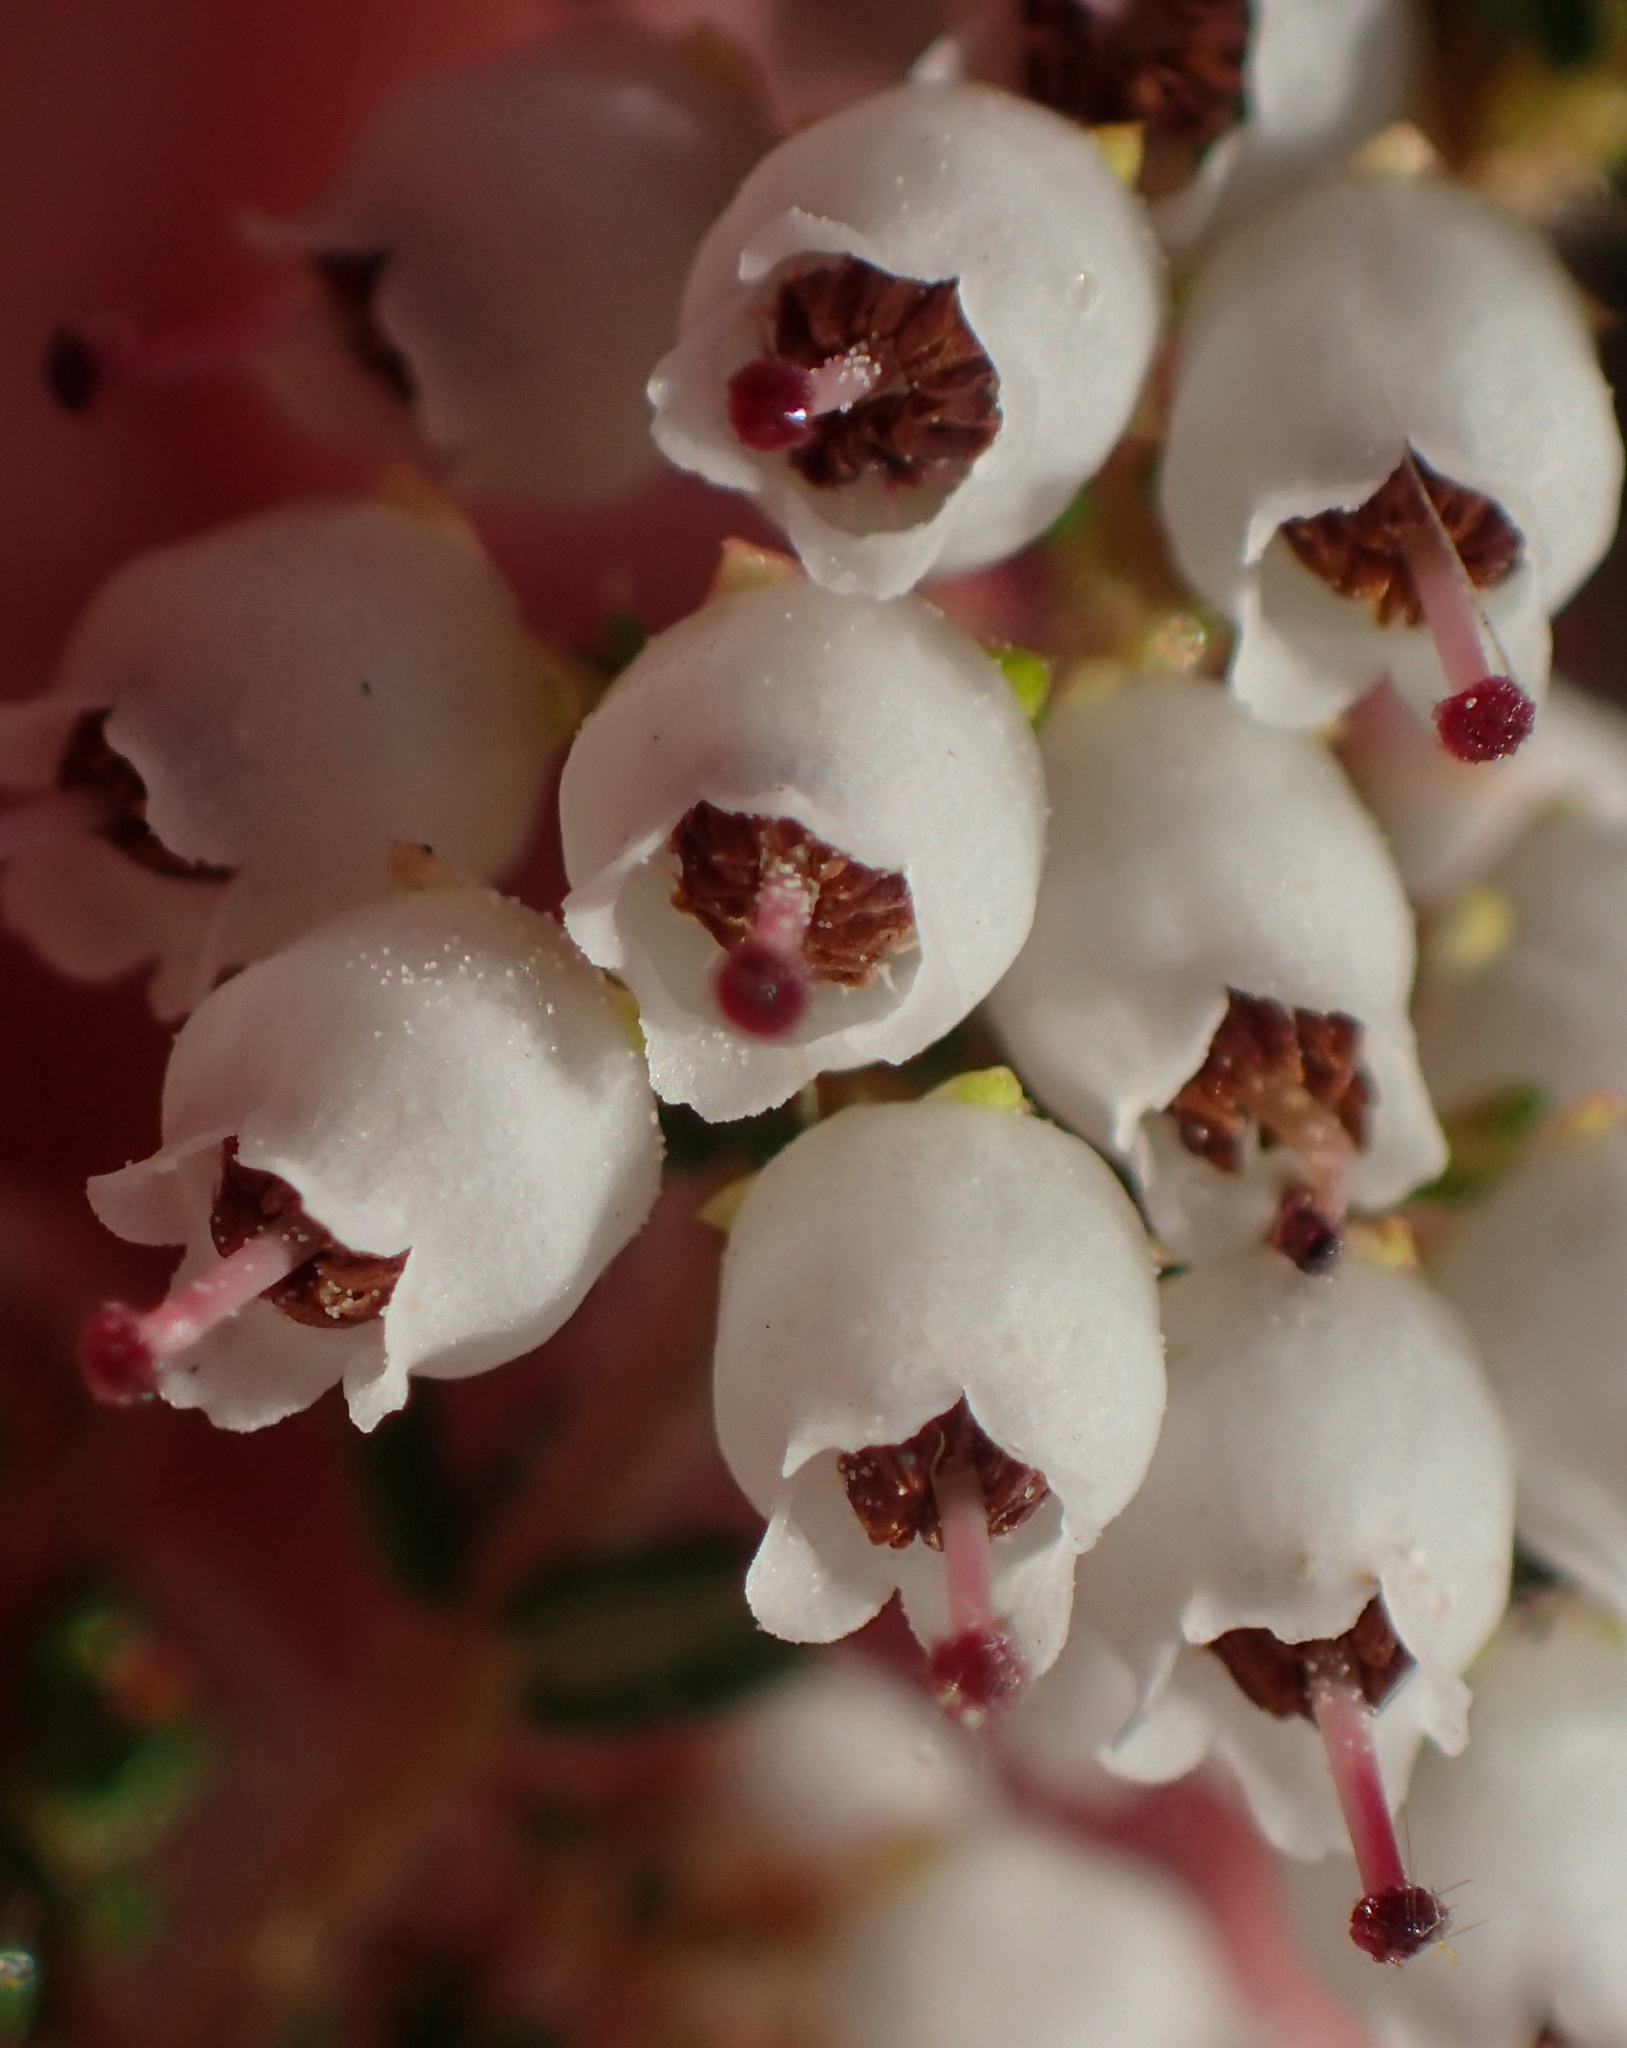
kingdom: Plantae
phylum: Tracheophyta
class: Magnoliopsida
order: Ericales
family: Ericaceae
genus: Erica
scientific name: Erica scabriuscula
